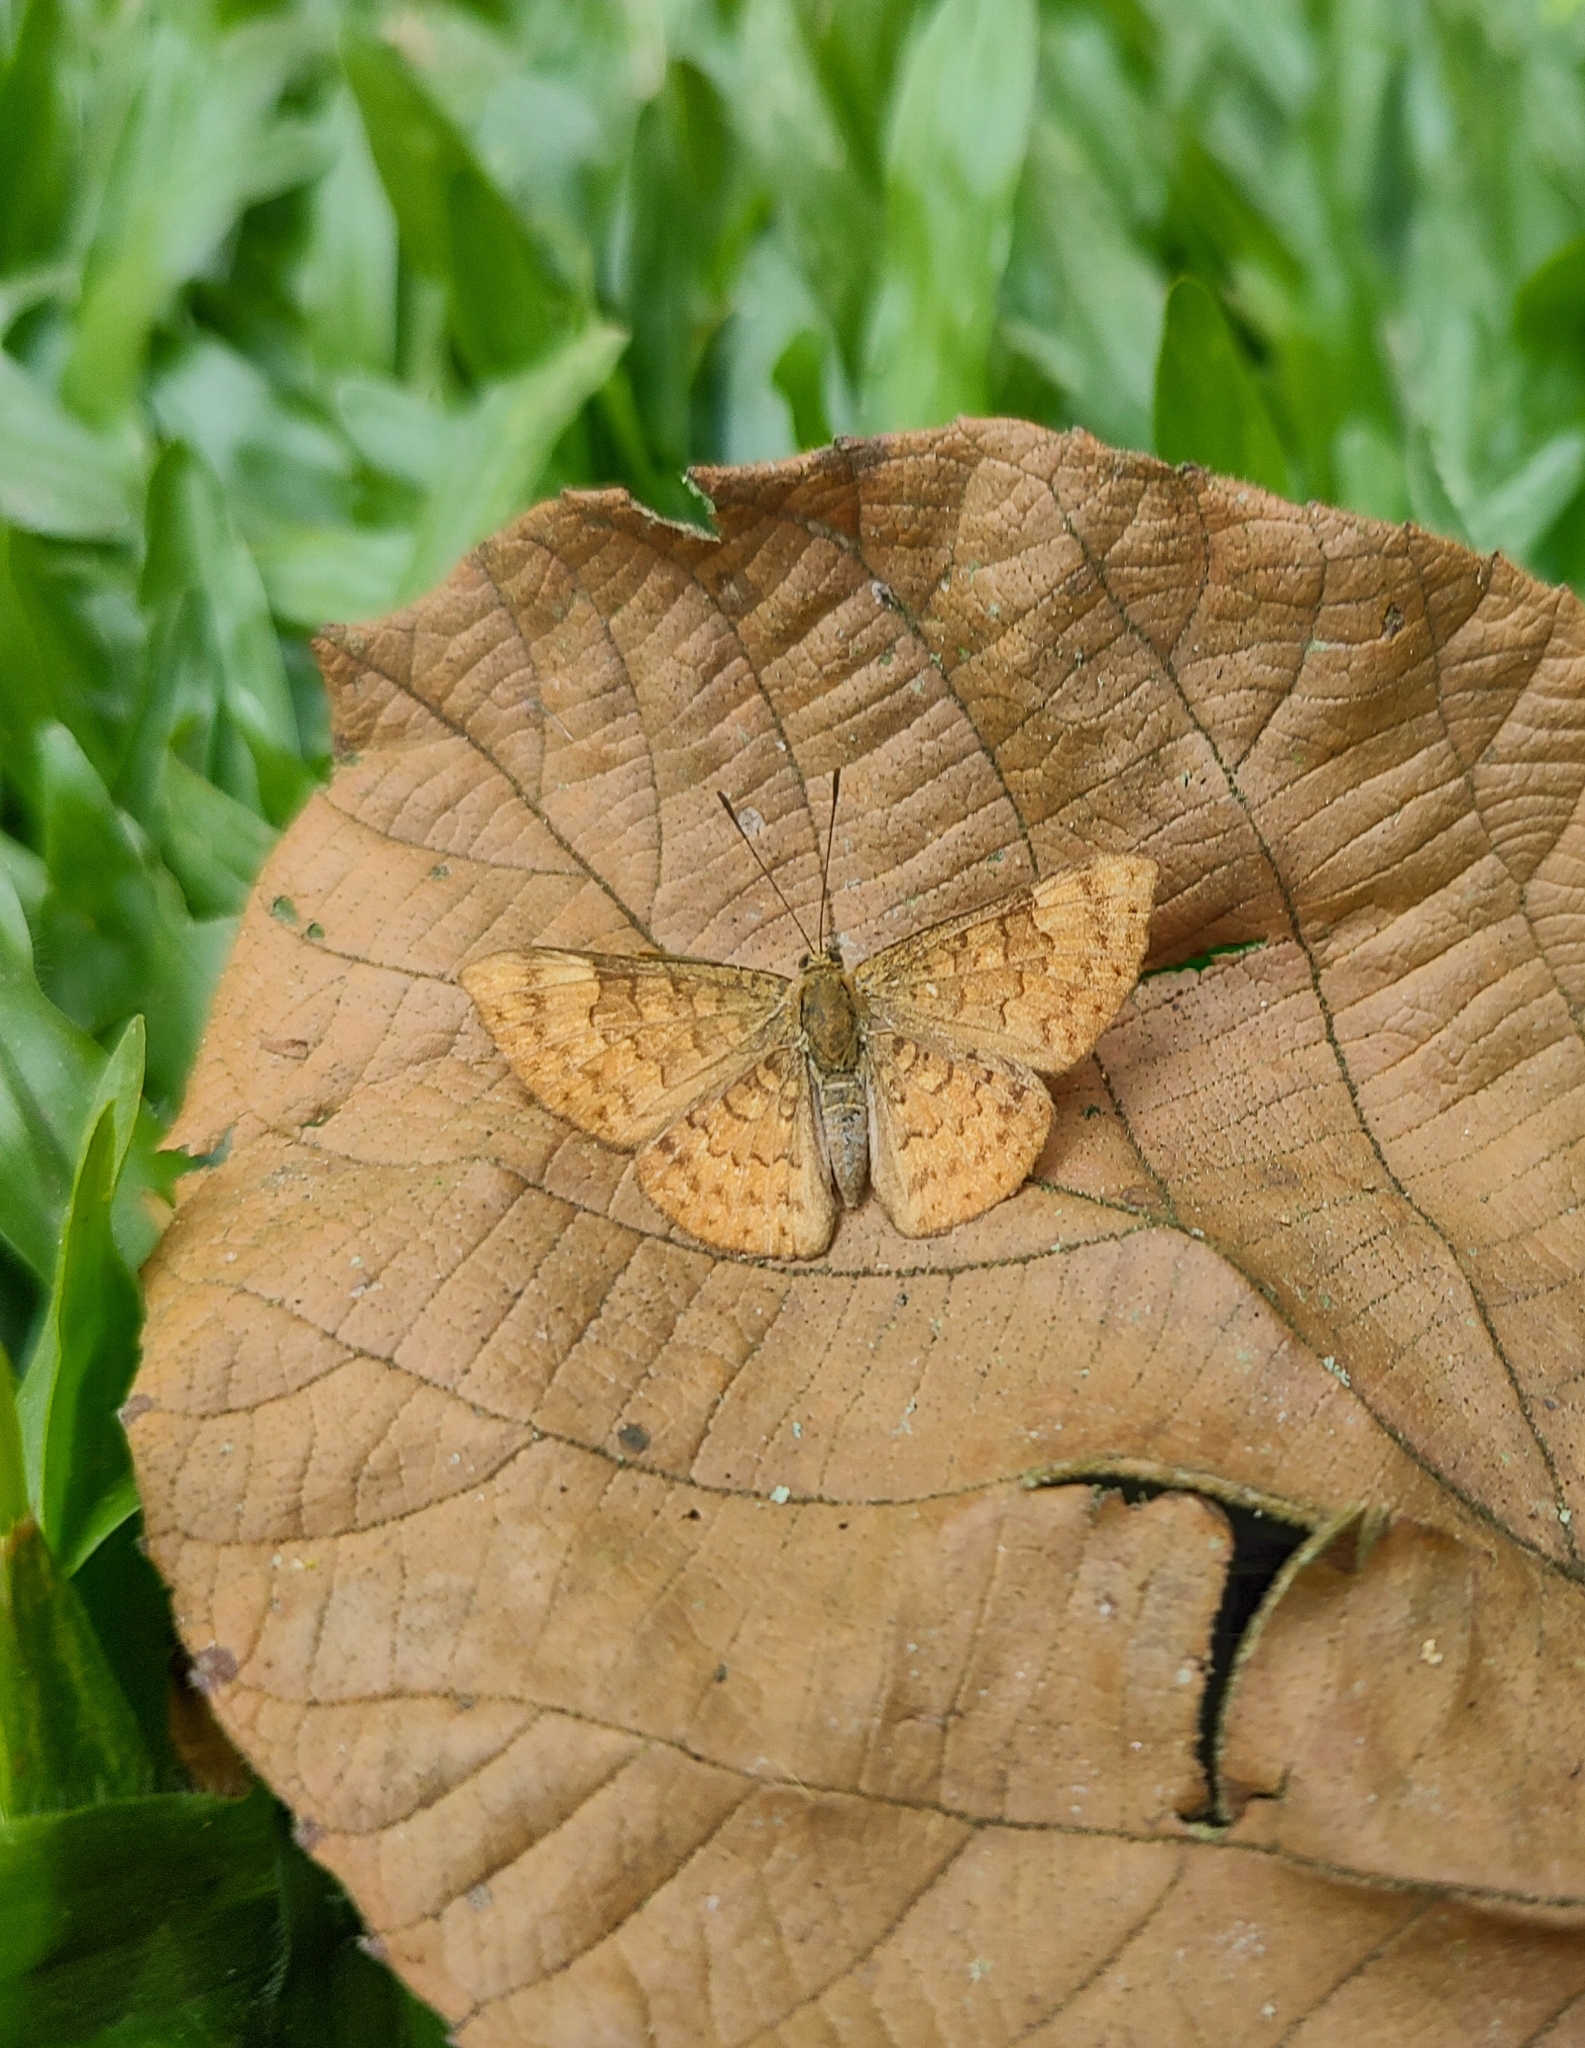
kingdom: Animalia
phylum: Arthropoda
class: Insecta
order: Lepidoptera
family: Lycaenidae
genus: Emesis
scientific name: Emesis tenedia
